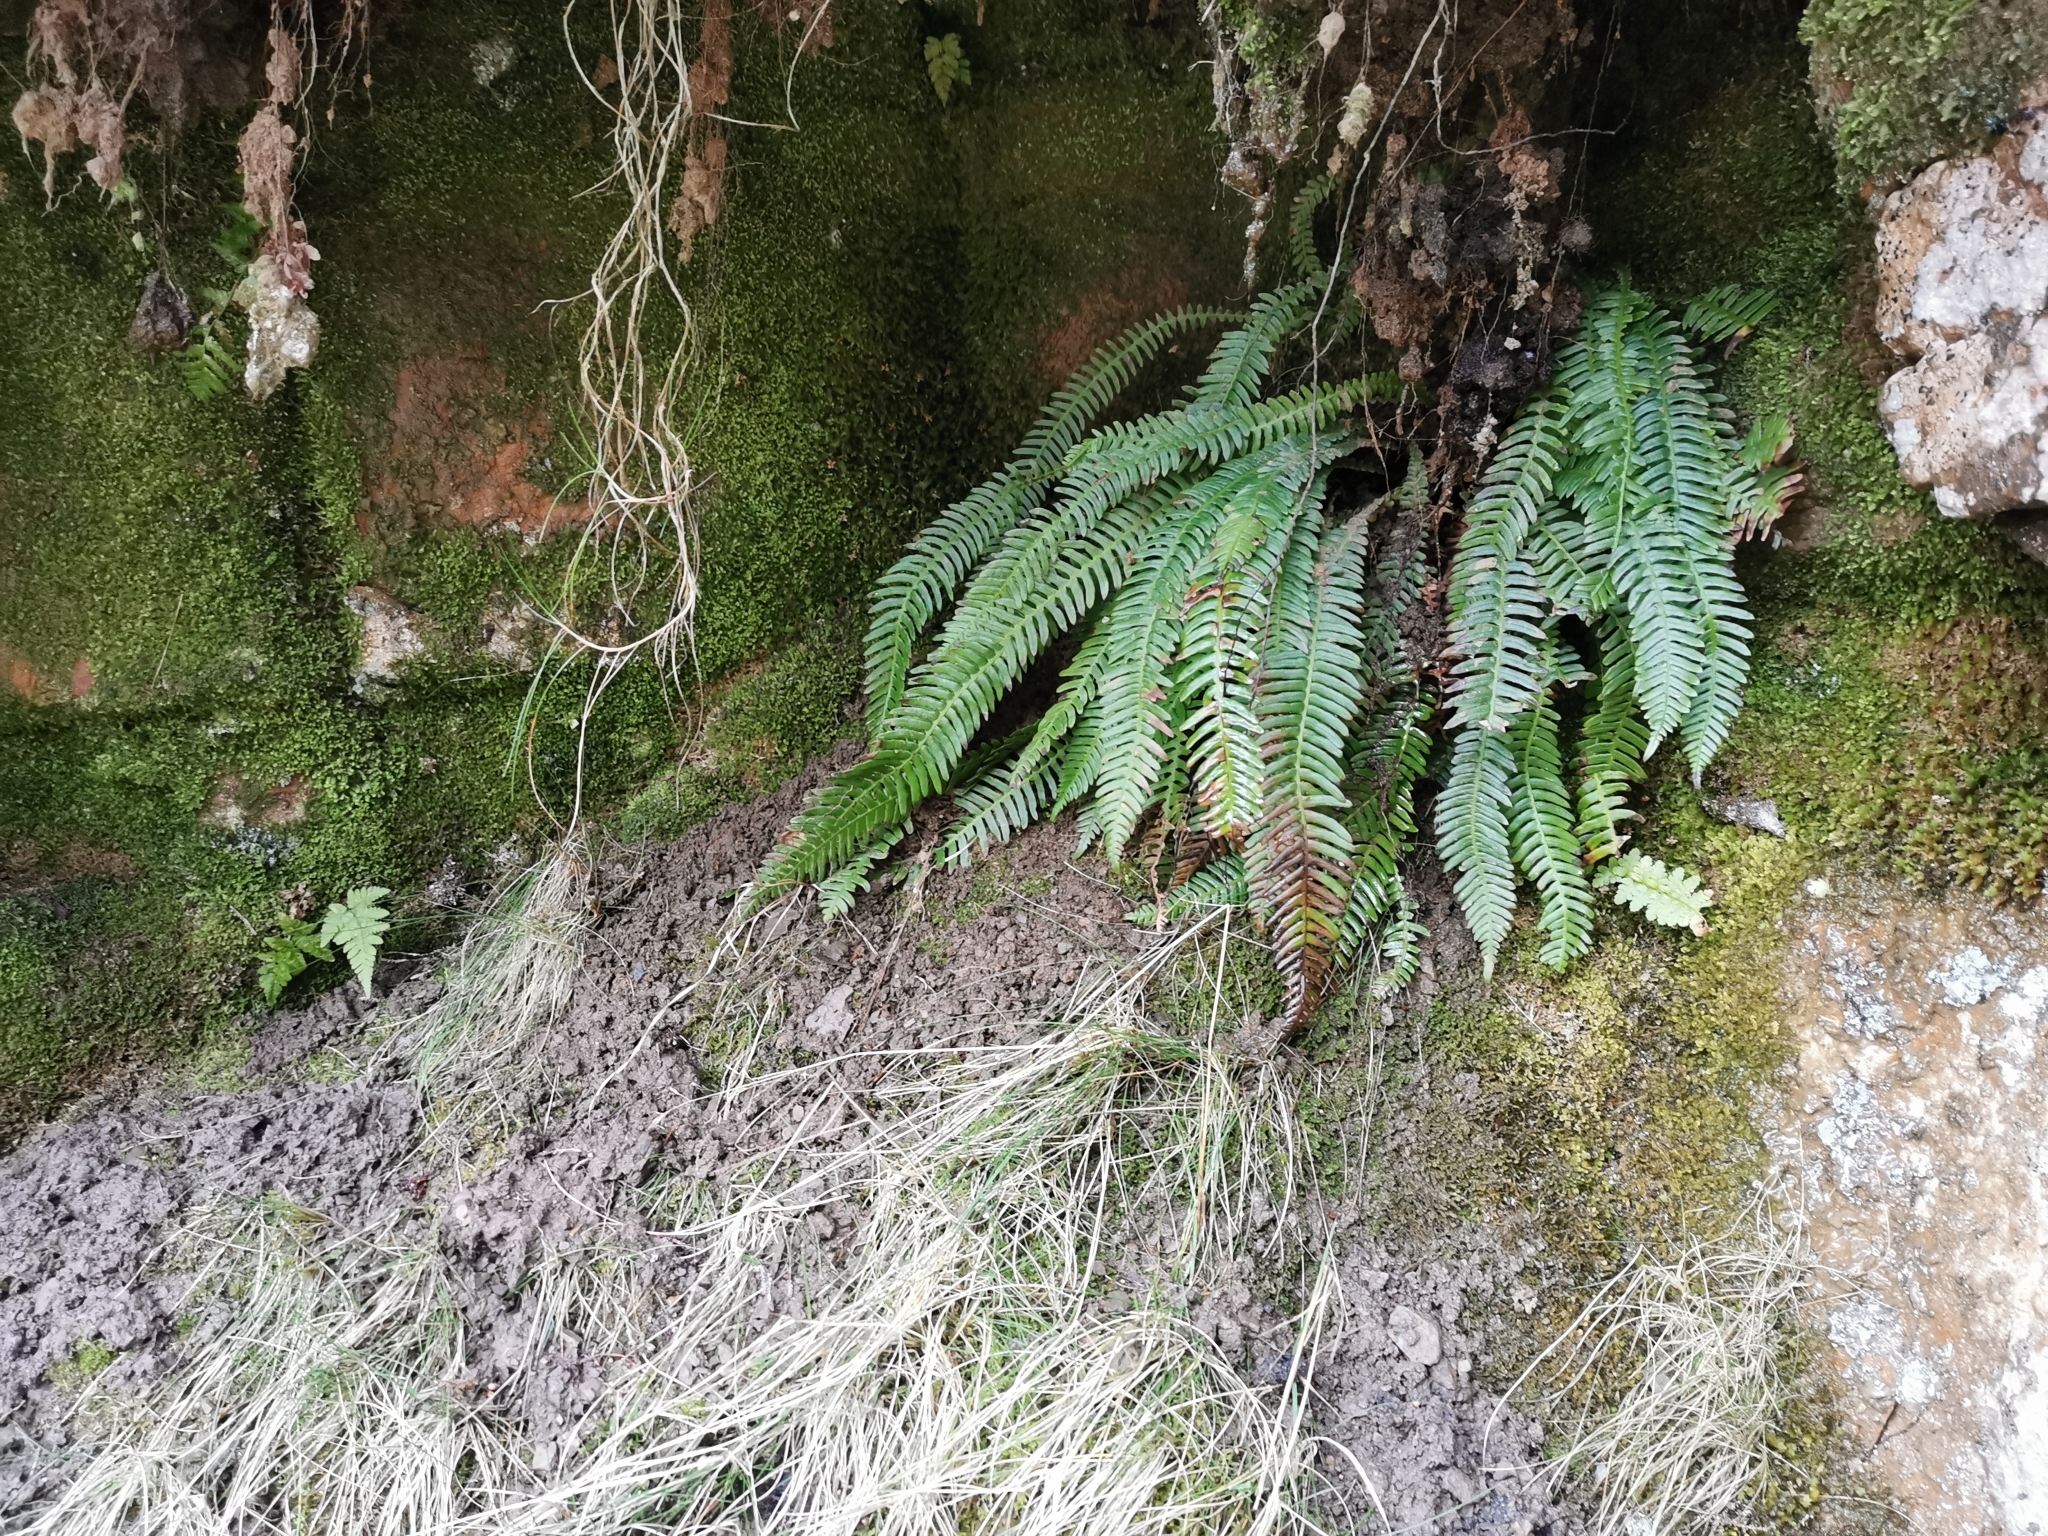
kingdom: Plantae
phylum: Tracheophyta
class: Polypodiopsida
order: Polypodiales
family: Blechnaceae
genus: Struthiopteris
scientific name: Struthiopteris spicant
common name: Deer fern
